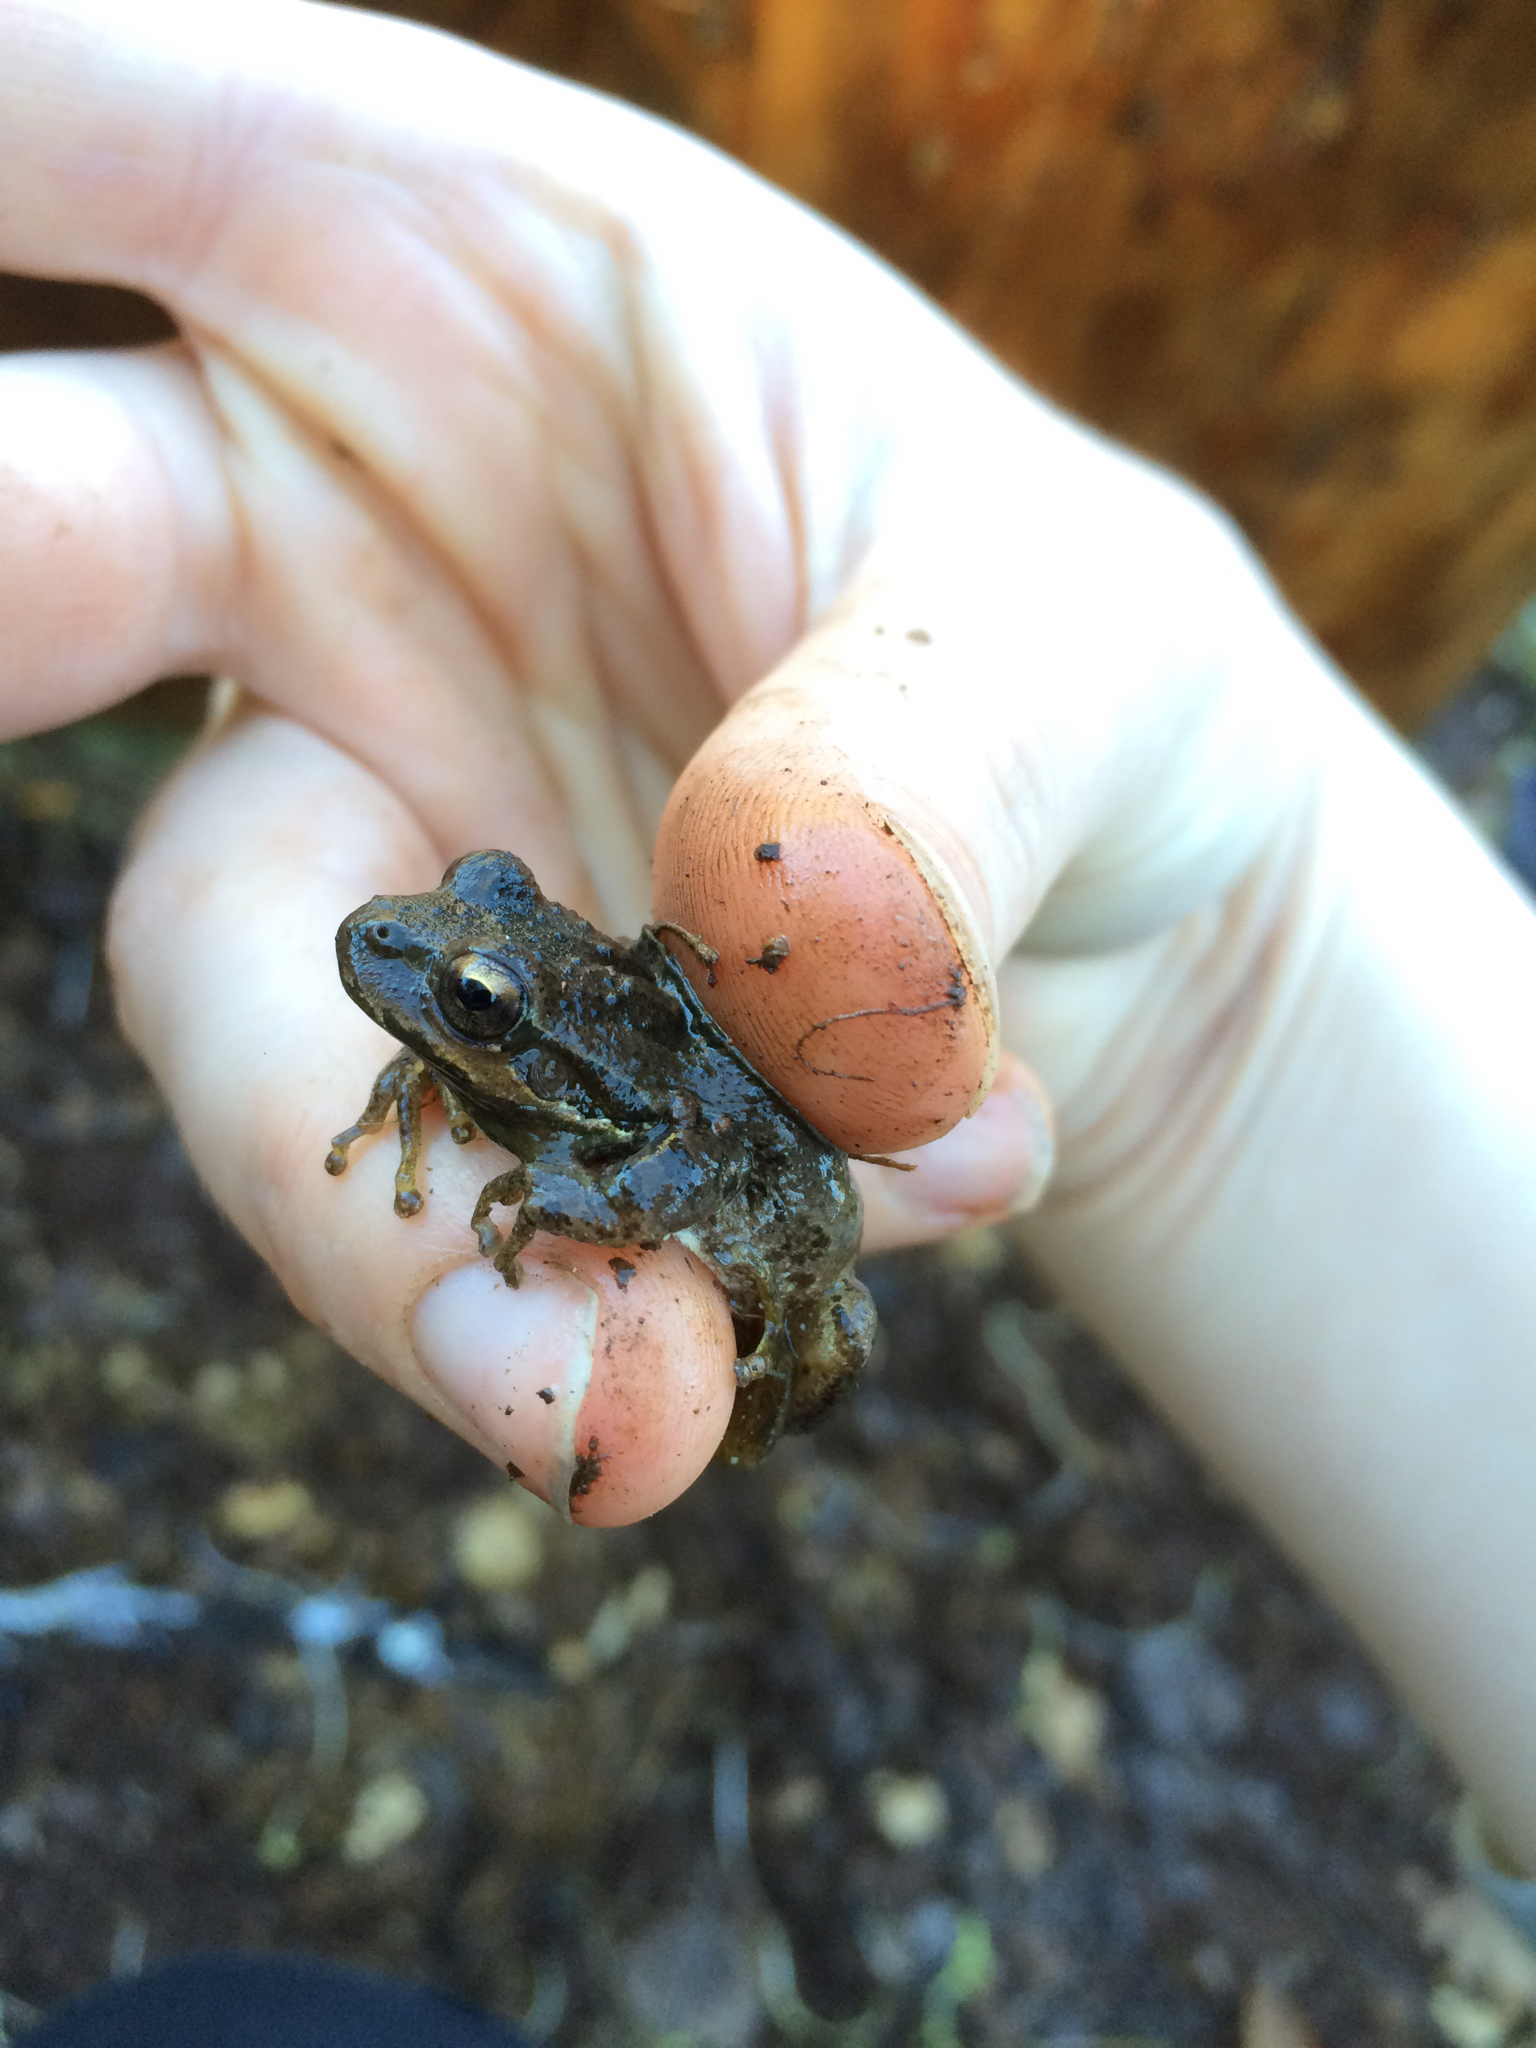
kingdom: Animalia
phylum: Chordata
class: Amphibia
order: Anura
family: Hylidae
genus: Pseudacris
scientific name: Pseudacris regilla
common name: Pacific chorus frog
